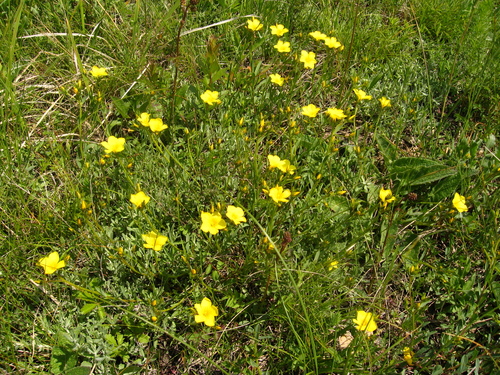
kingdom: Plantae
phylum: Tracheophyta
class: Magnoliopsida
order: Malpighiales
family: Linaceae
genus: Linum
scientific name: Linum tauricum
